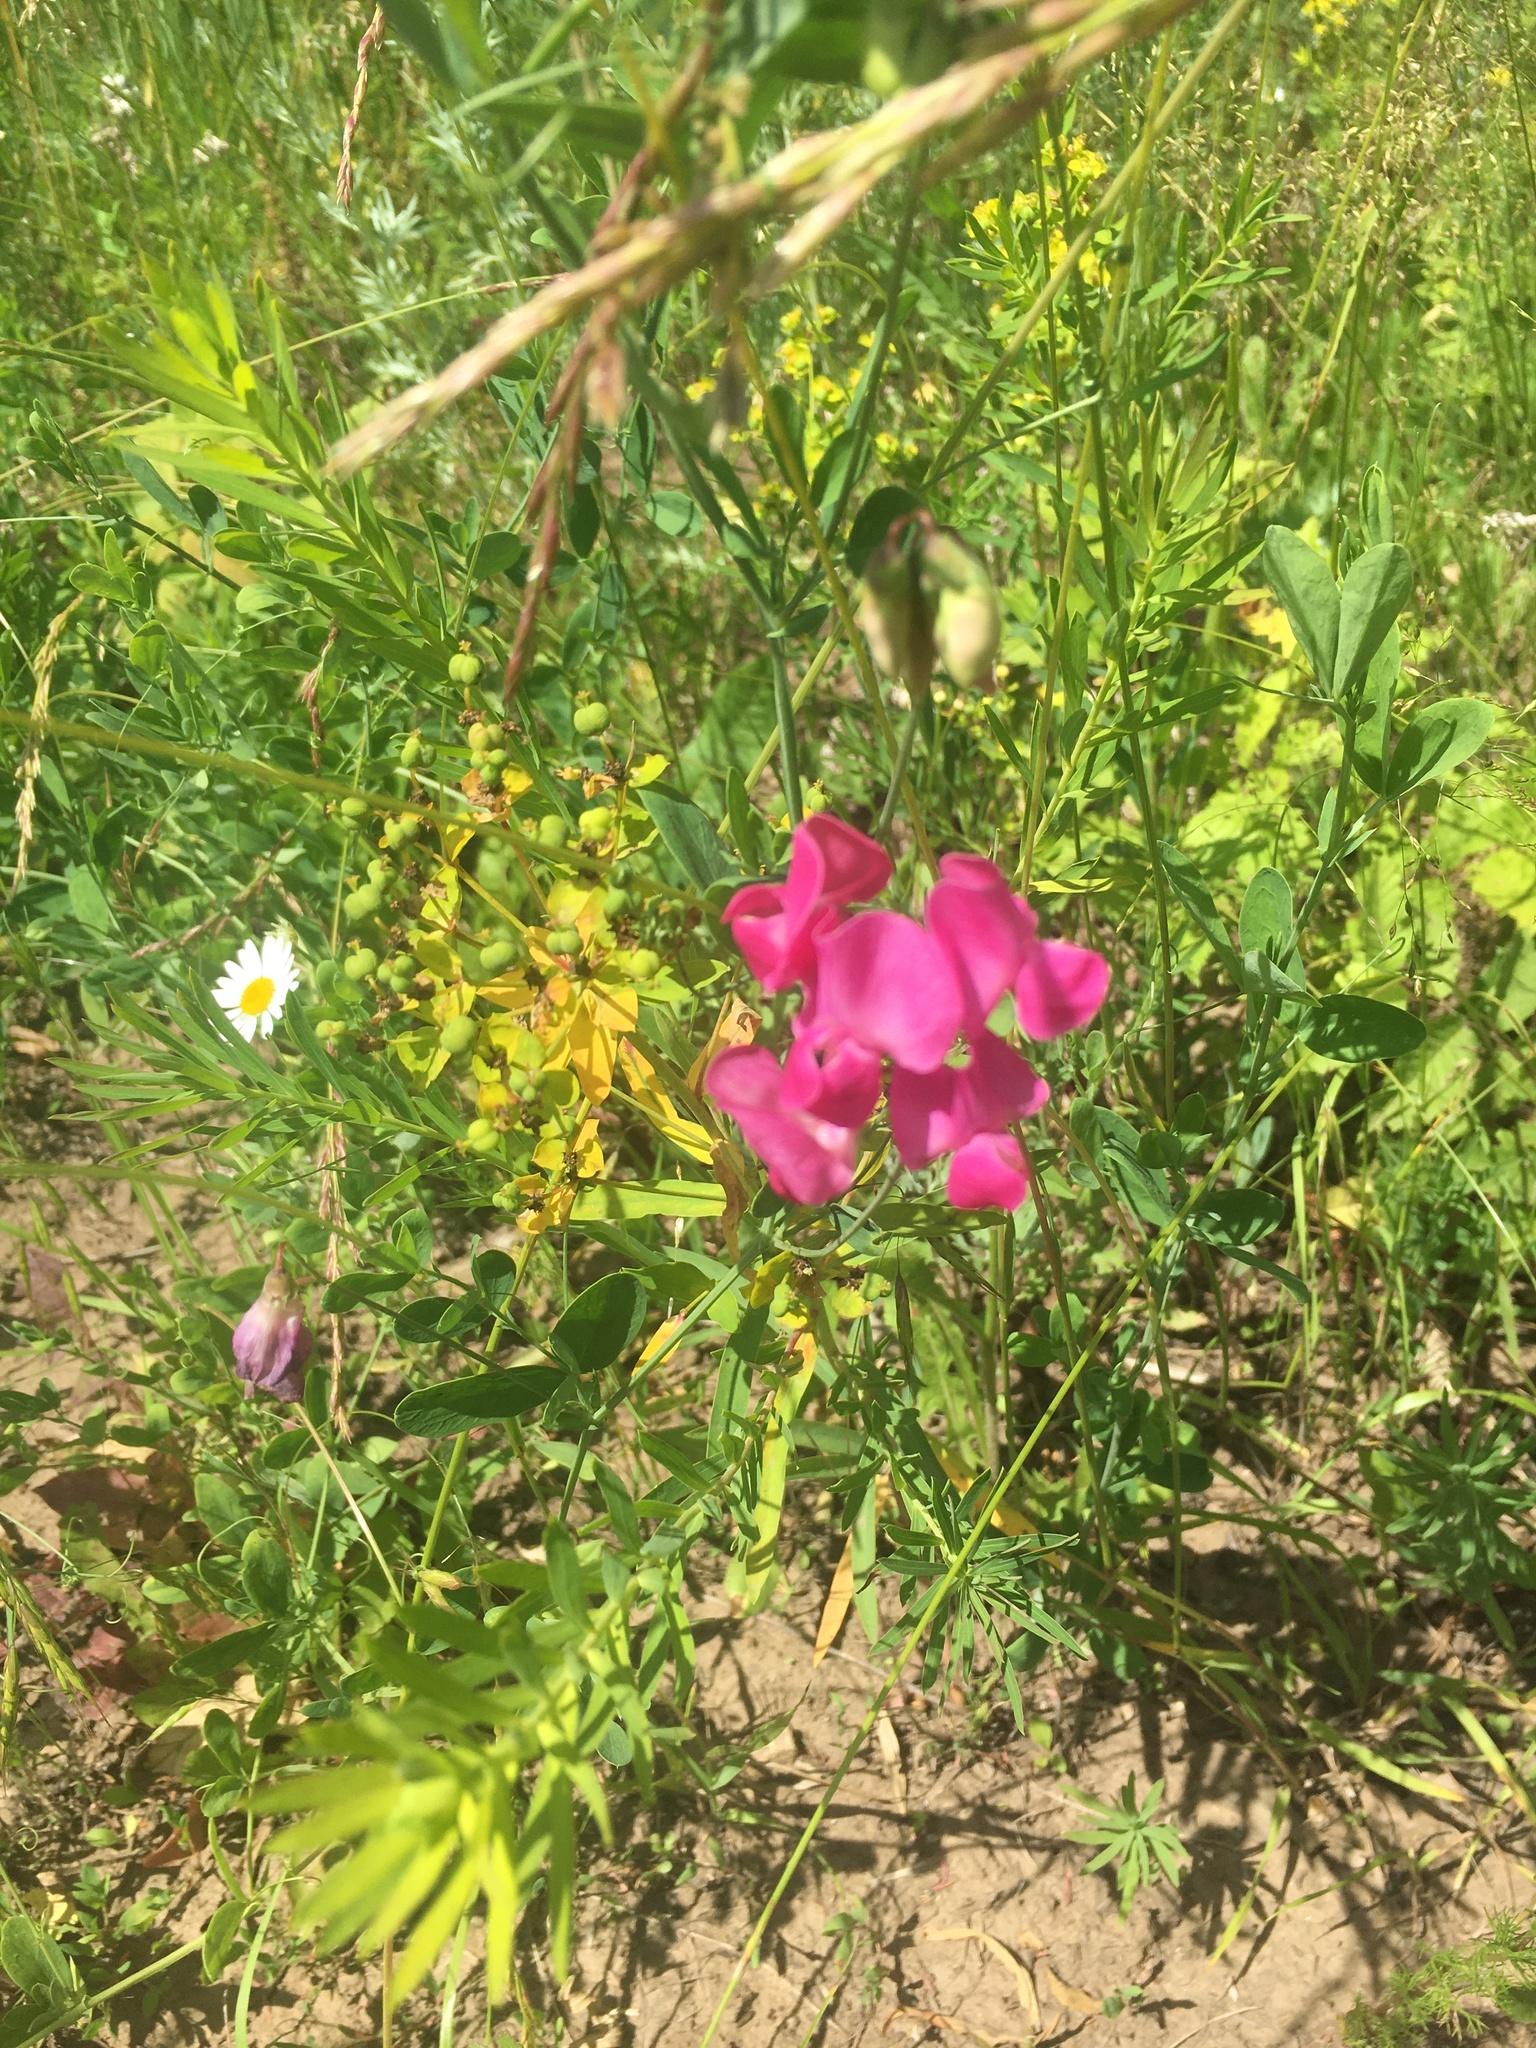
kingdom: Plantae
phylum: Tracheophyta
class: Magnoliopsida
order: Fabales
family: Fabaceae
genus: Lathyrus
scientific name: Lathyrus tuberosus
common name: Tuberous pea
